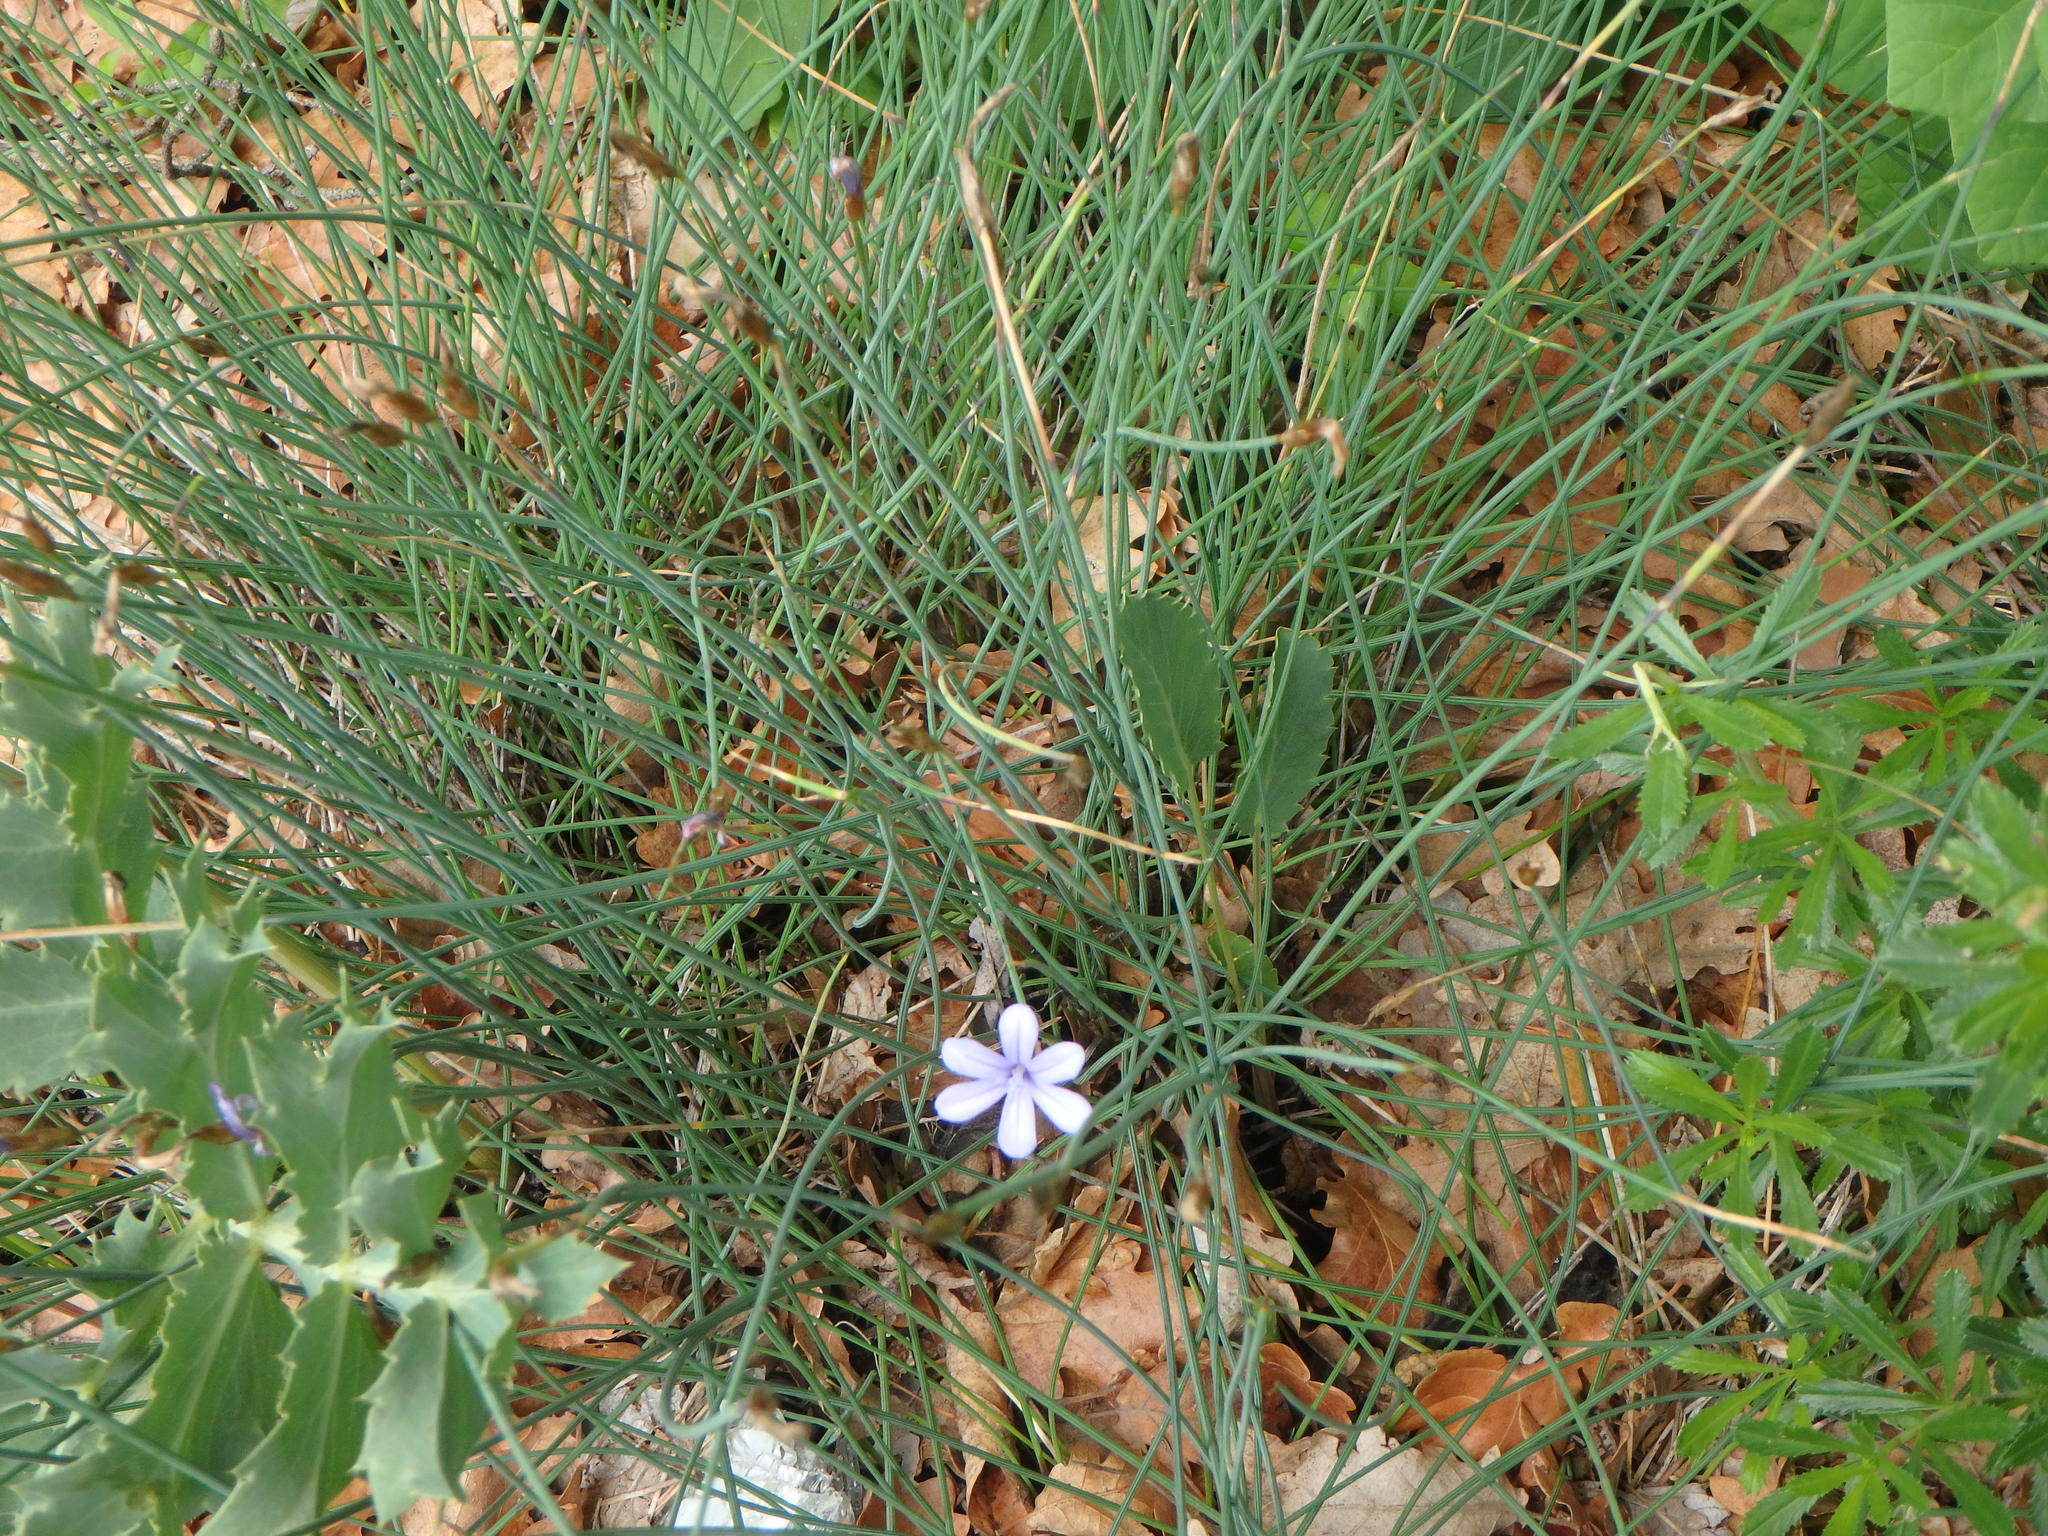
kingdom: Plantae
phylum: Tracheophyta
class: Liliopsida
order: Asparagales
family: Asparagaceae
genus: Aphyllanthes
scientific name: Aphyllanthes monspeliensis
